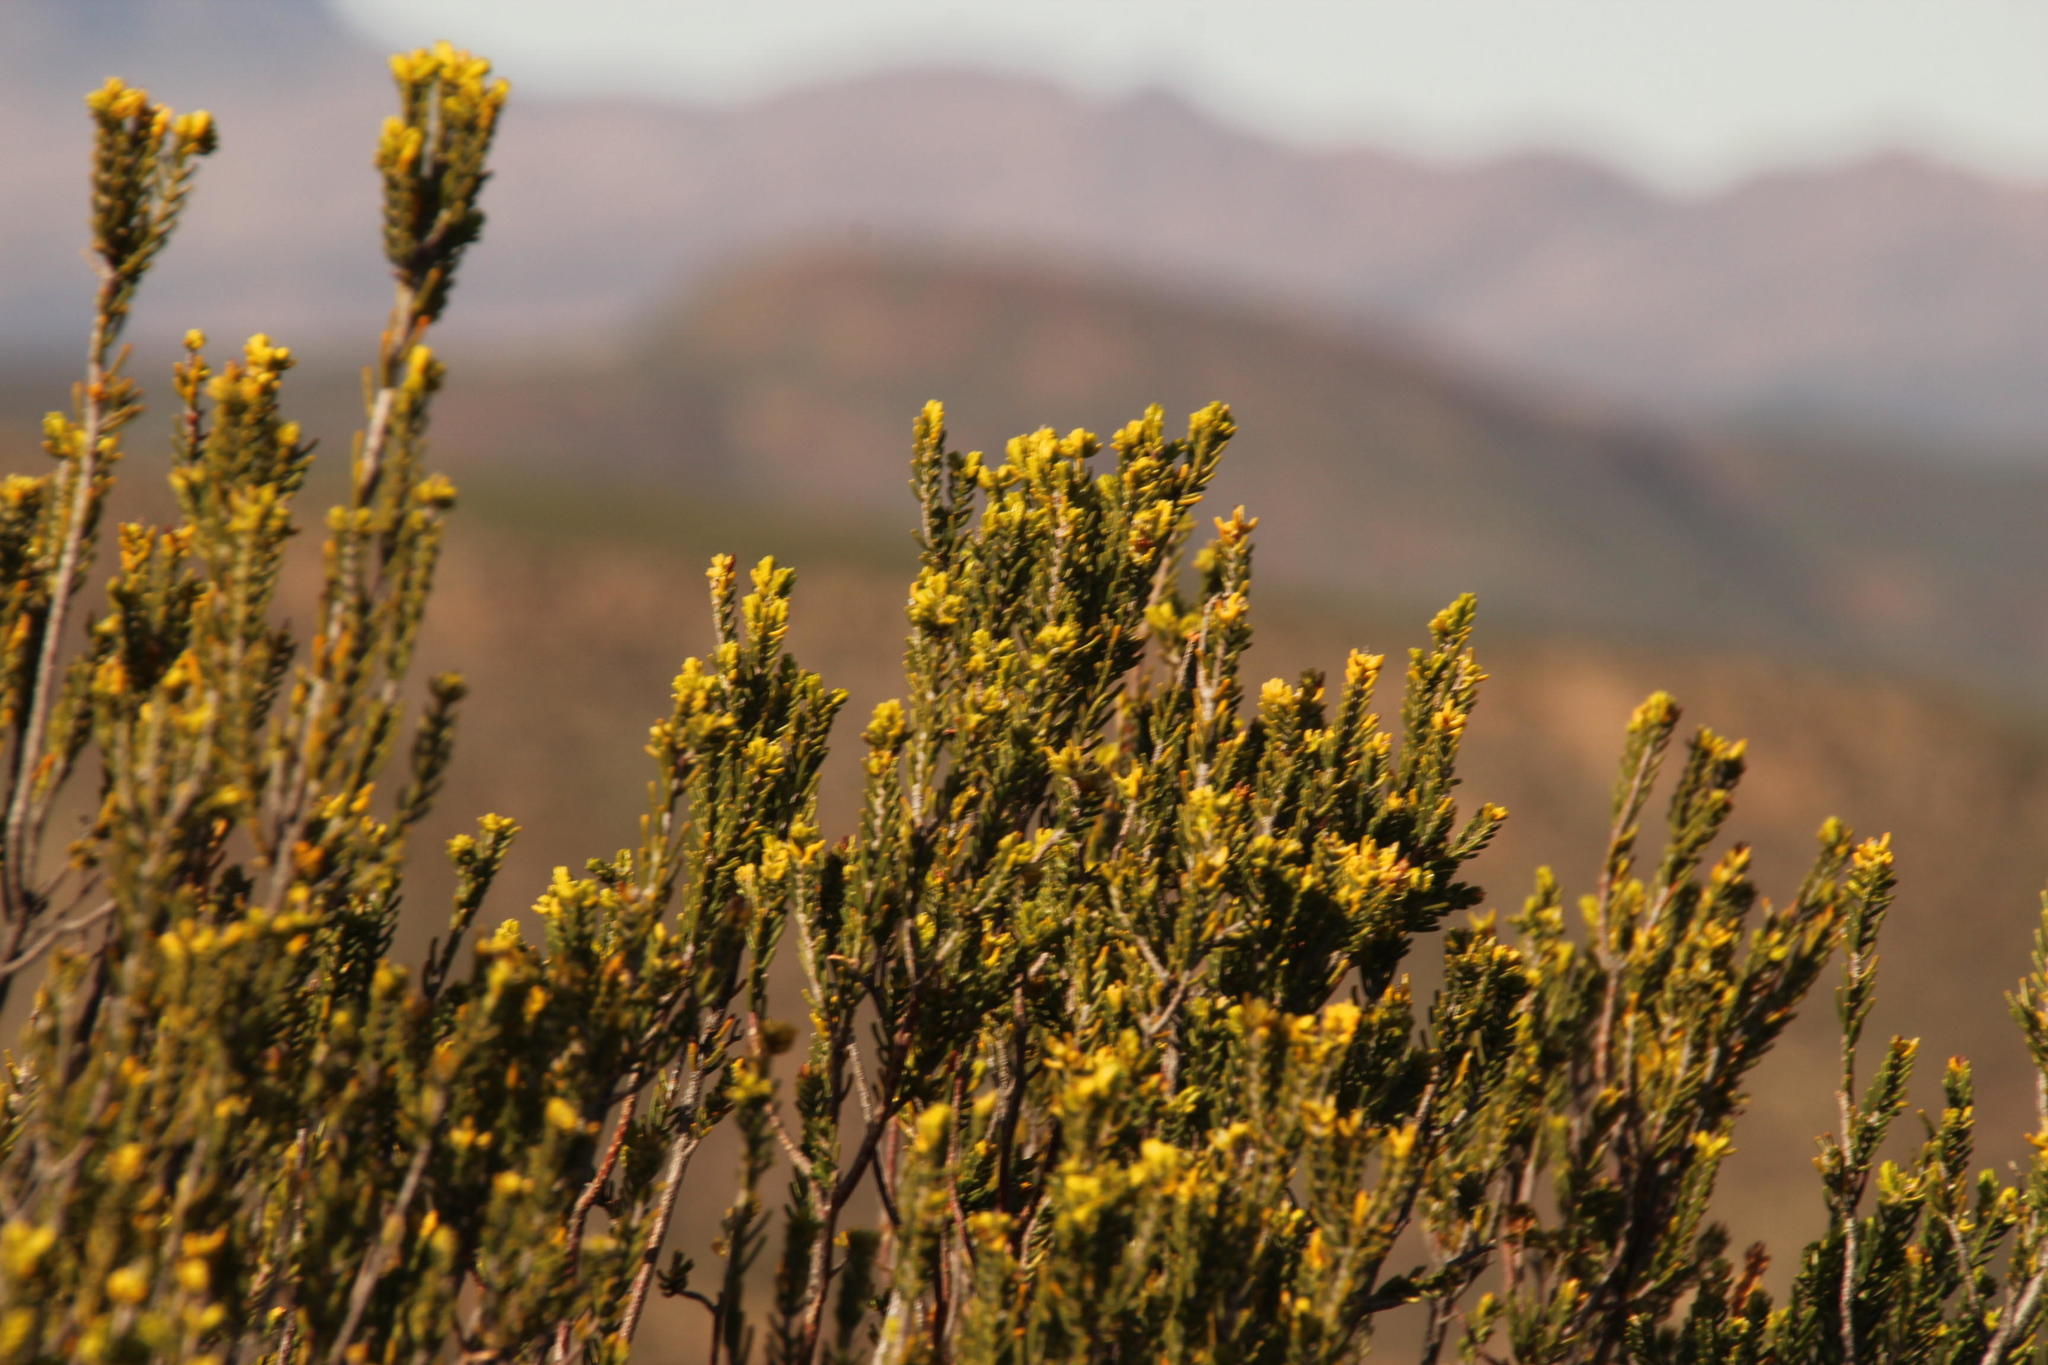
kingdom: Plantae
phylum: Tracheophyta
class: Magnoliopsida
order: Malvales
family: Thymelaeaceae
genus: Passerina
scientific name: Passerina obtusifolia
